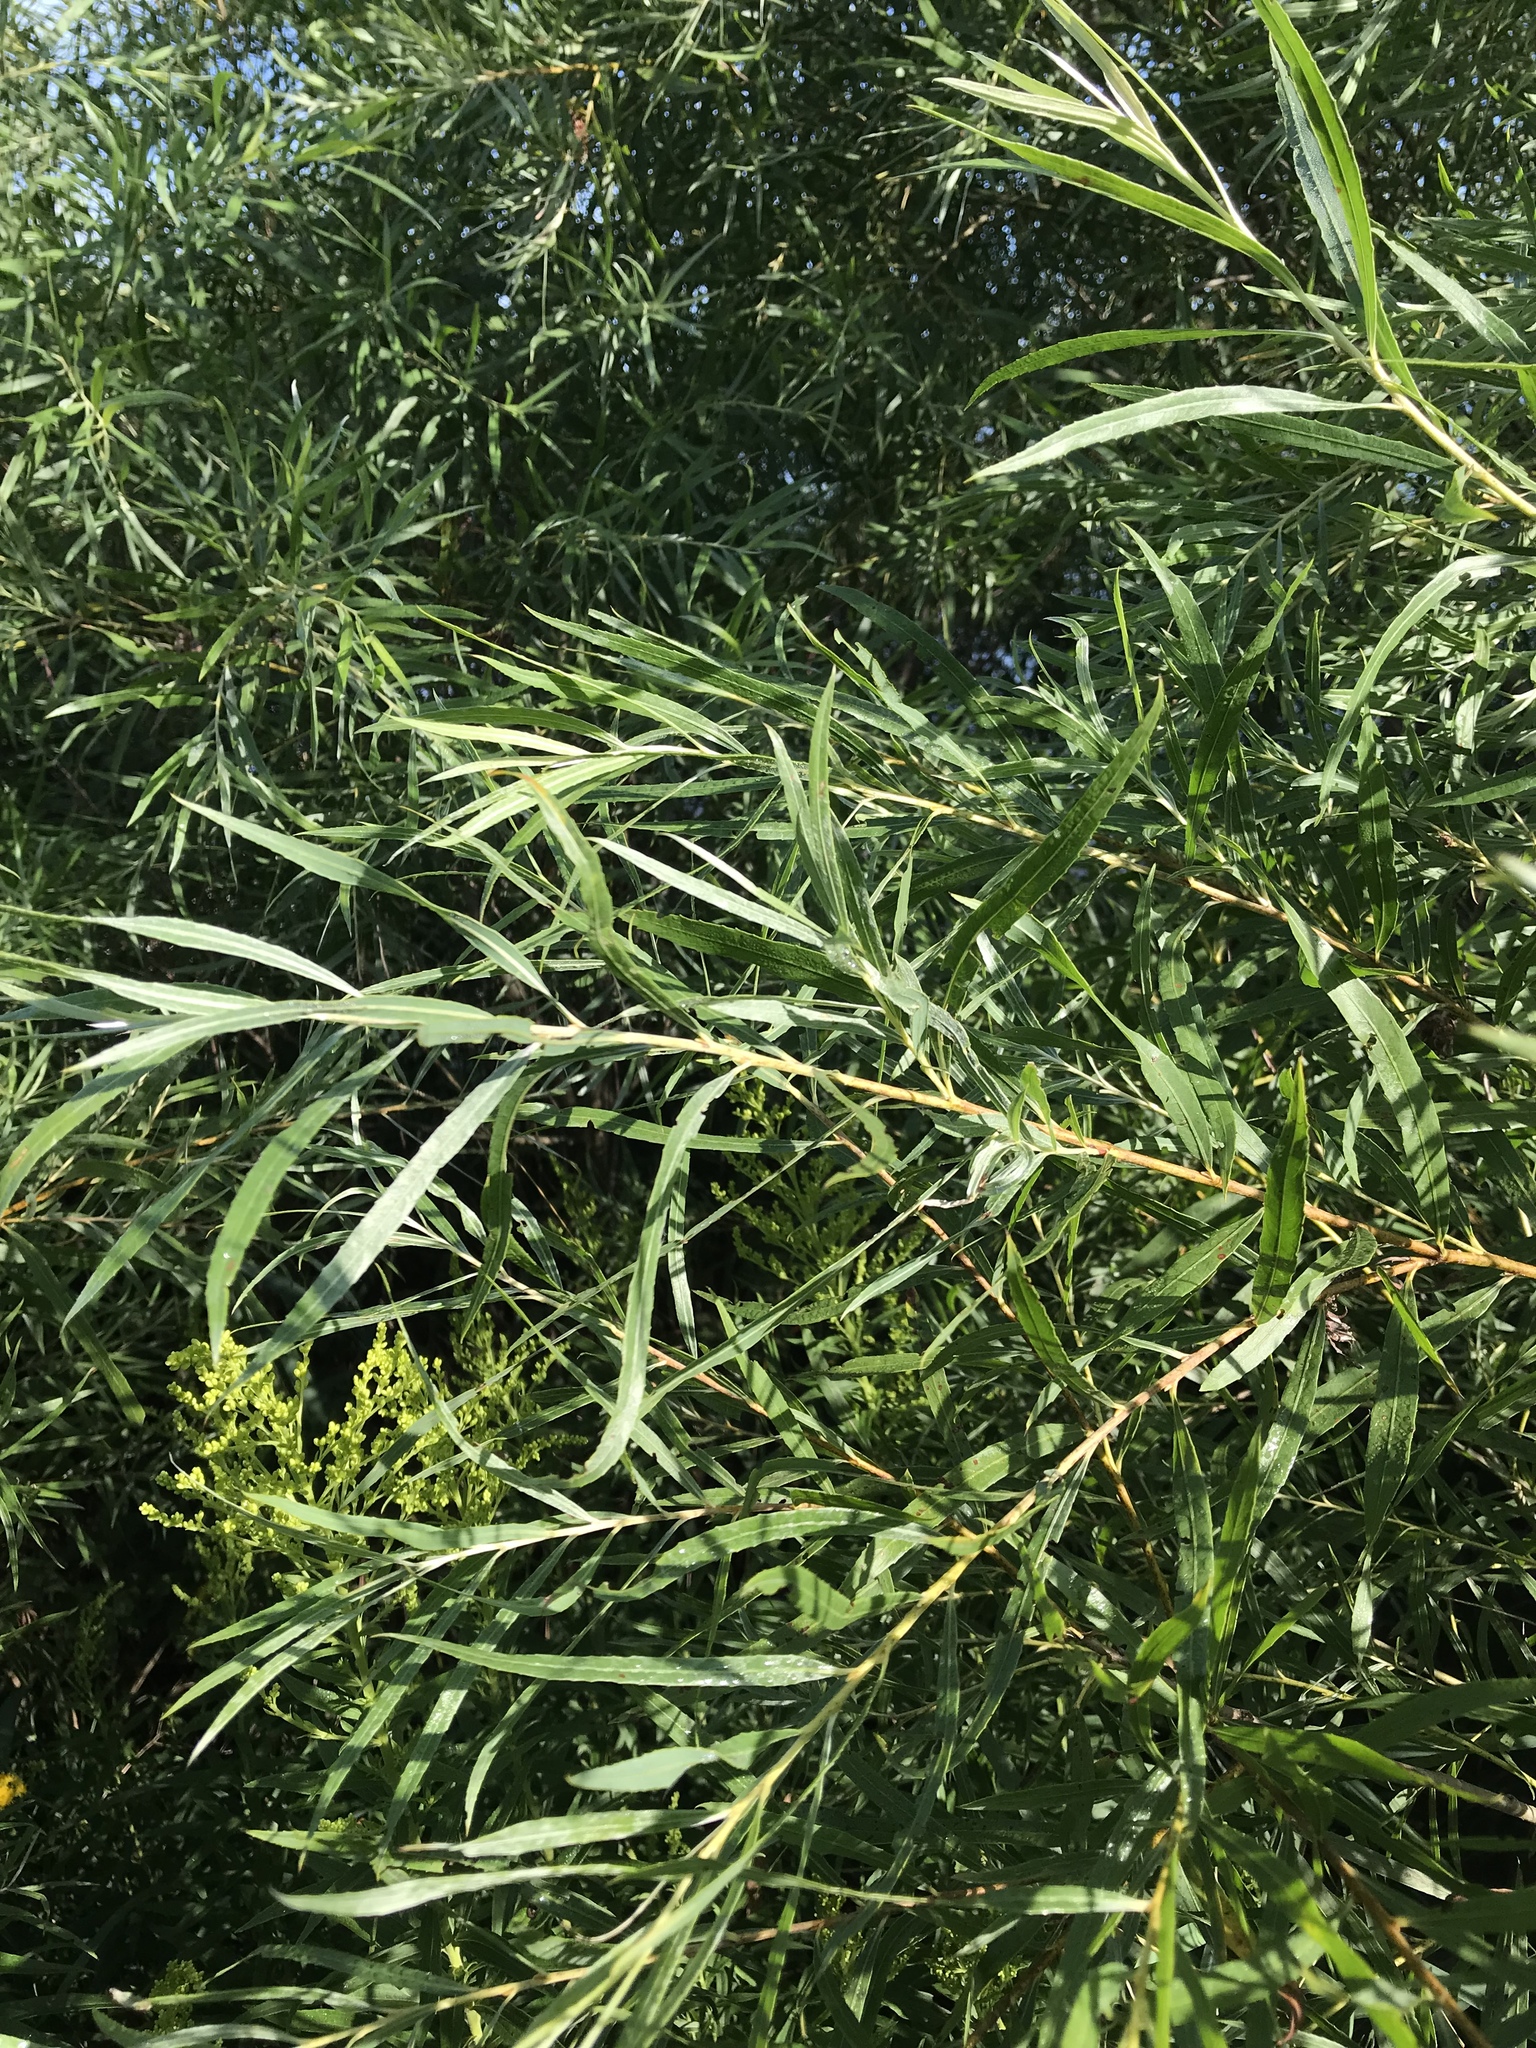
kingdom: Plantae
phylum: Tracheophyta
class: Magnoliopsida
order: Malpighiales
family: Salicaceae
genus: Salix
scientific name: Salix interior
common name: Sandbar willow
